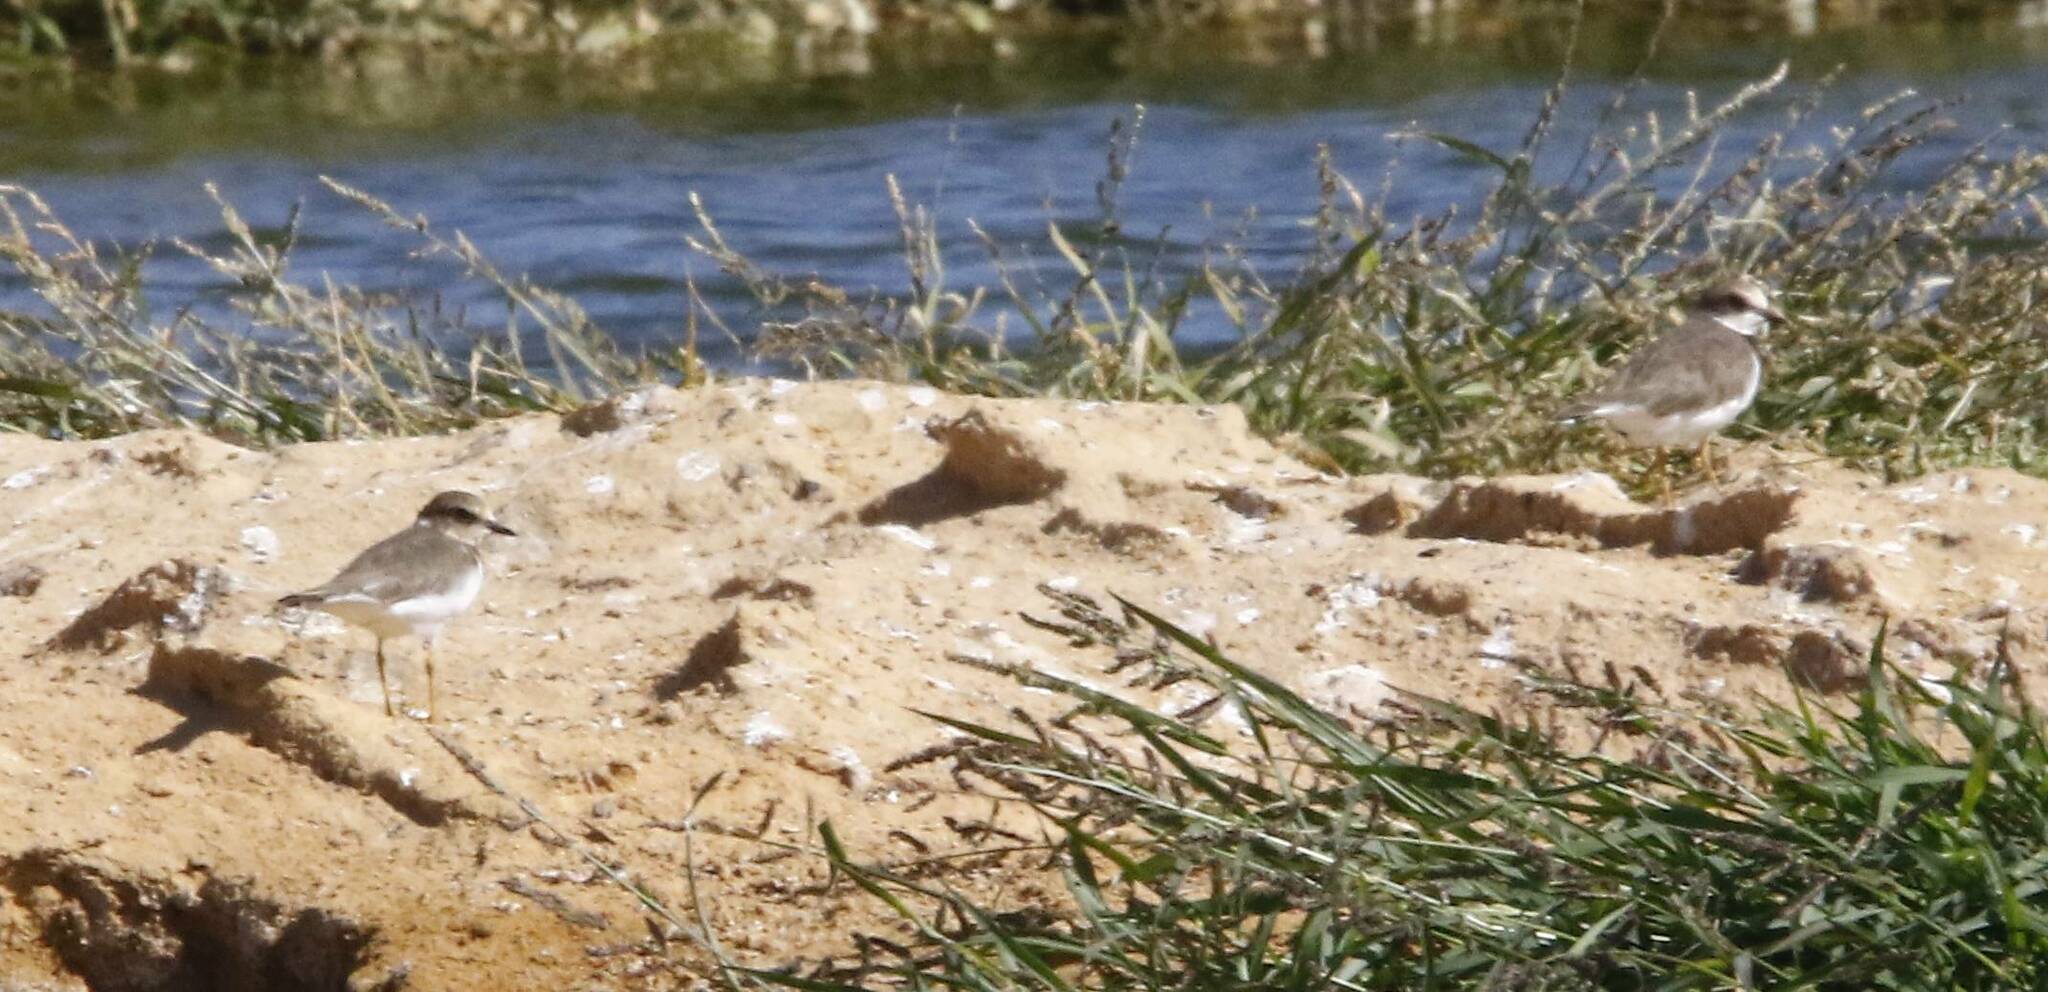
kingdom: Animalia
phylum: Chordata
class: Aves
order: Charadriiformes
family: Charadriidae
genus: Charadrius
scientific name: Charadrius dubius
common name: Little ringed plover
